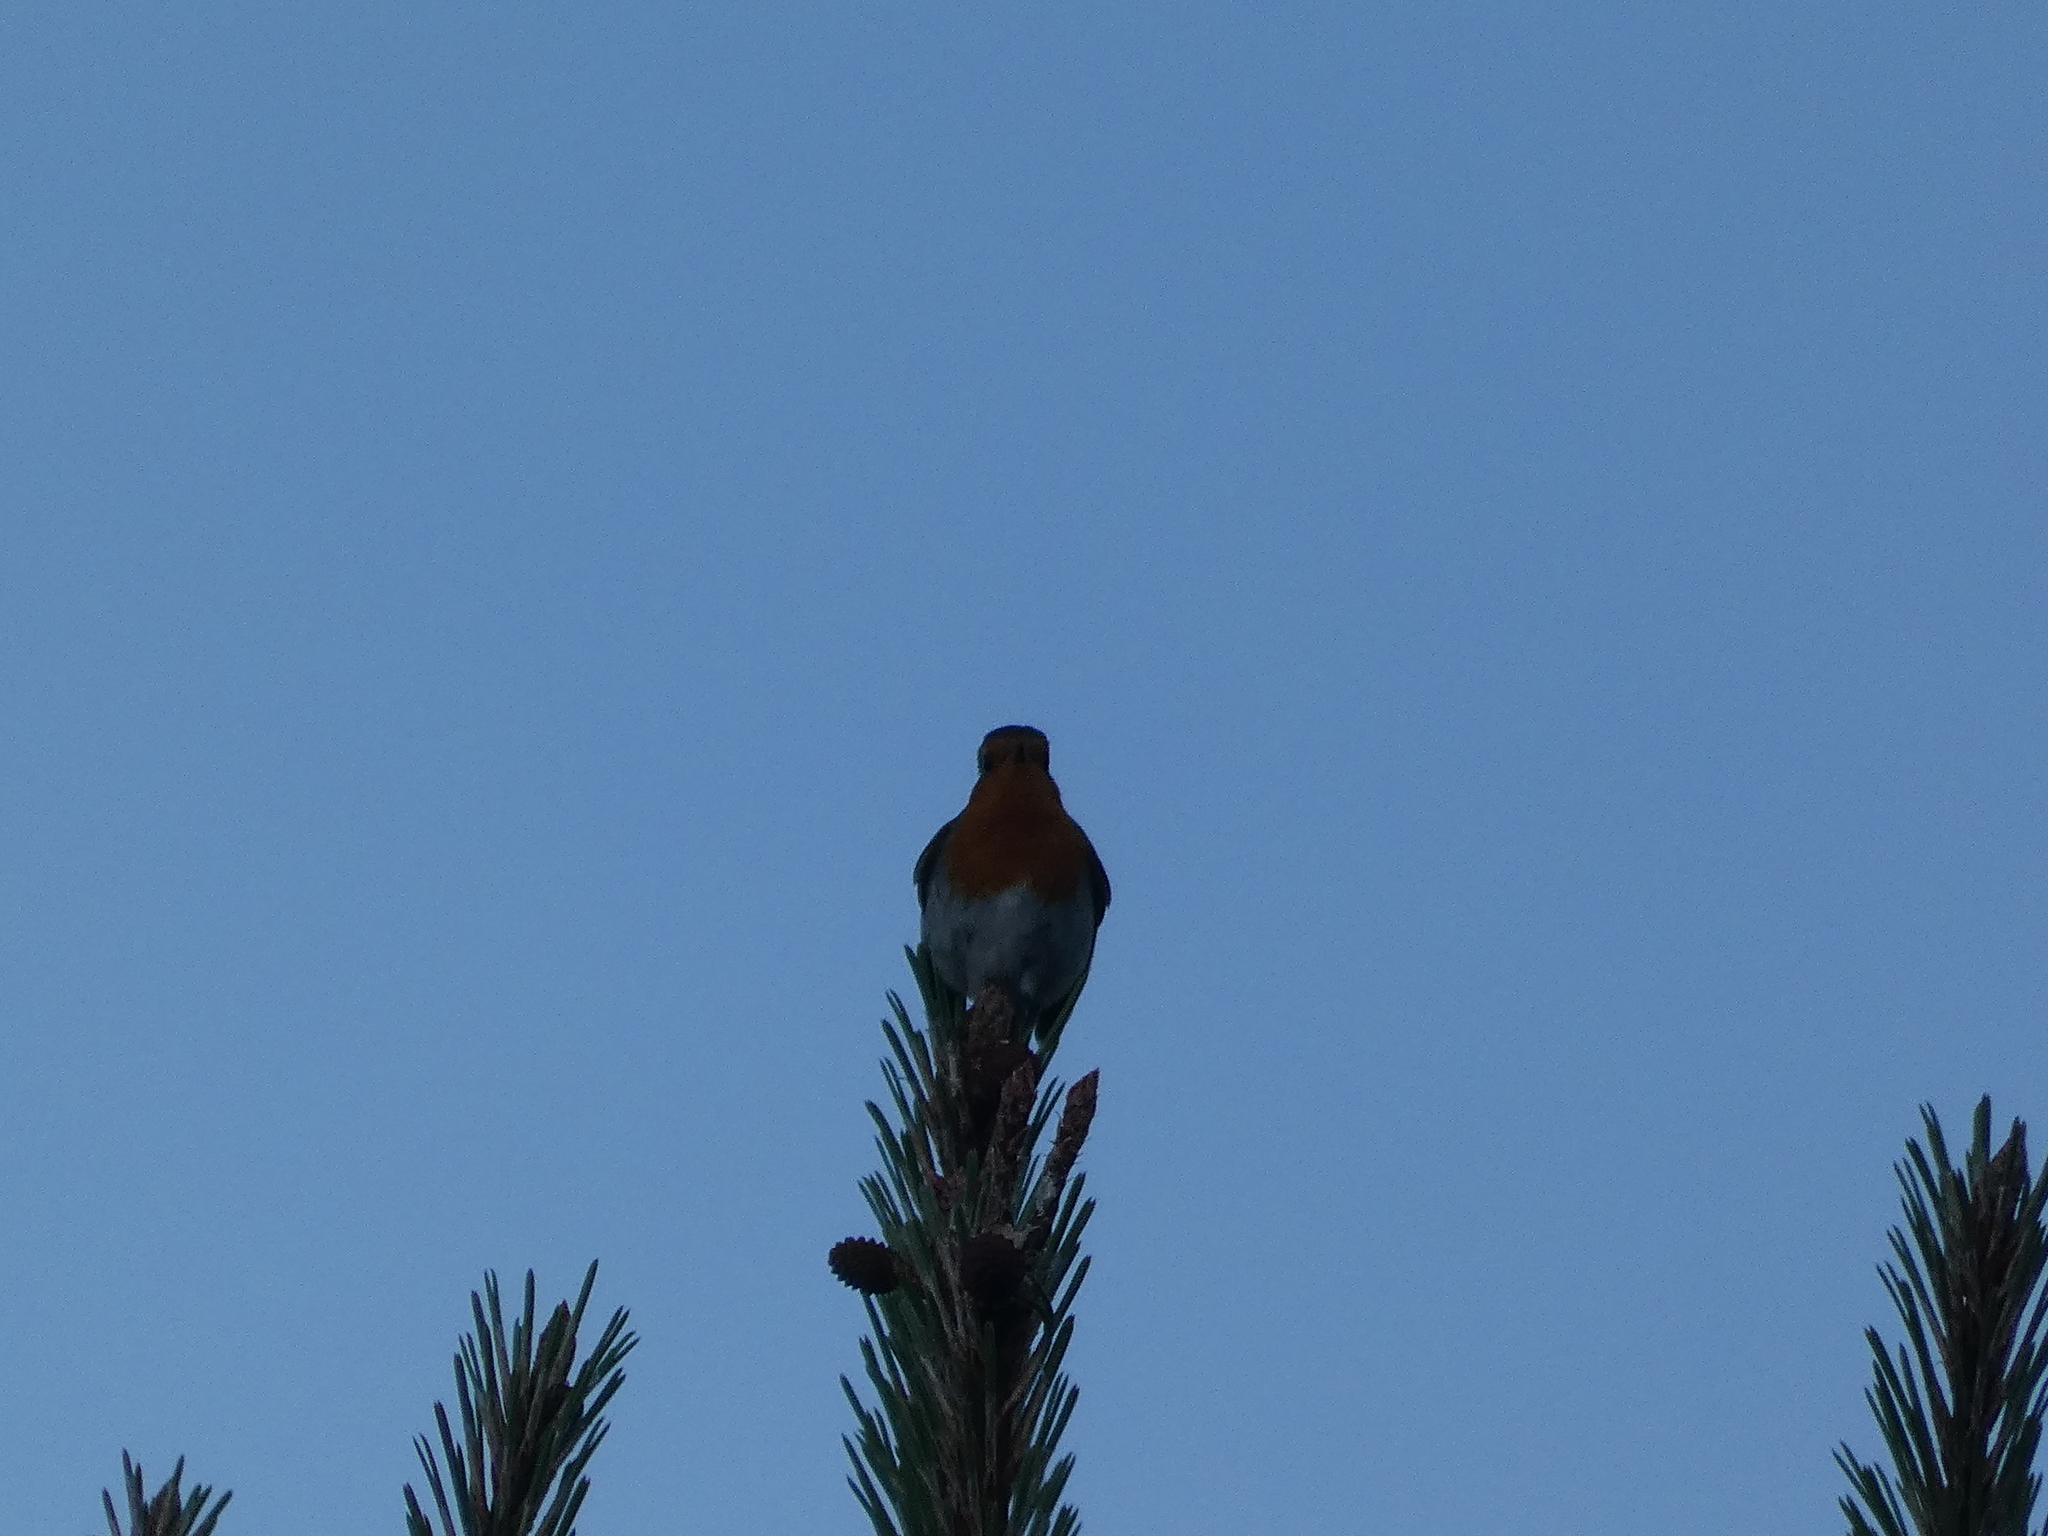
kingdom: Animalia
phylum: Chordata
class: Aves
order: Passeriformes
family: Muscicapidae
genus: Erithacus
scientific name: Erithacus rubecula
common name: European robin
